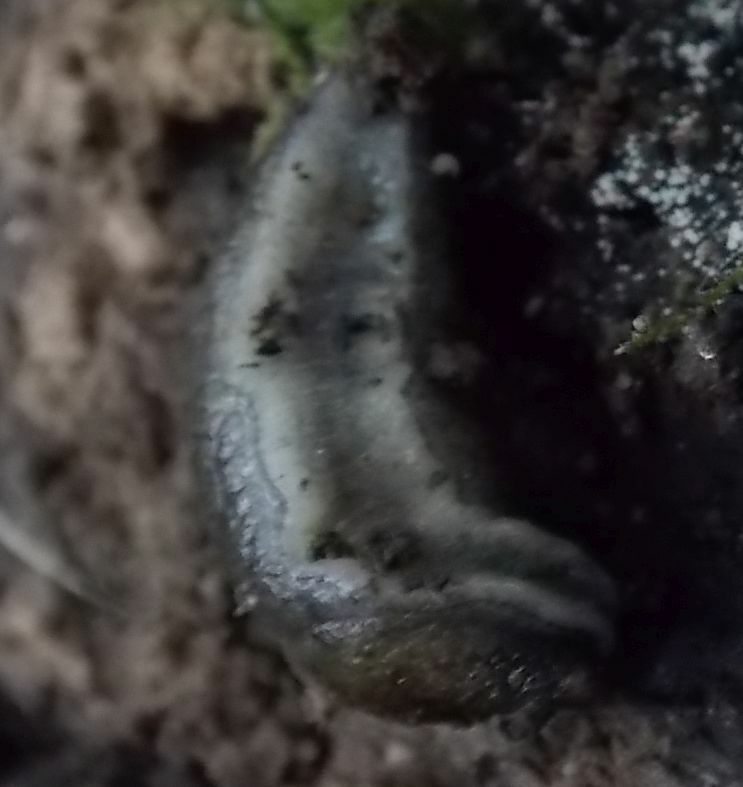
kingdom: Animalia
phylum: Mollusca
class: Gastropoda
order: Stylommatophora
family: Milacidae
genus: Tandonia
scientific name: Tandonia budapestensis
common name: Budapest slug
